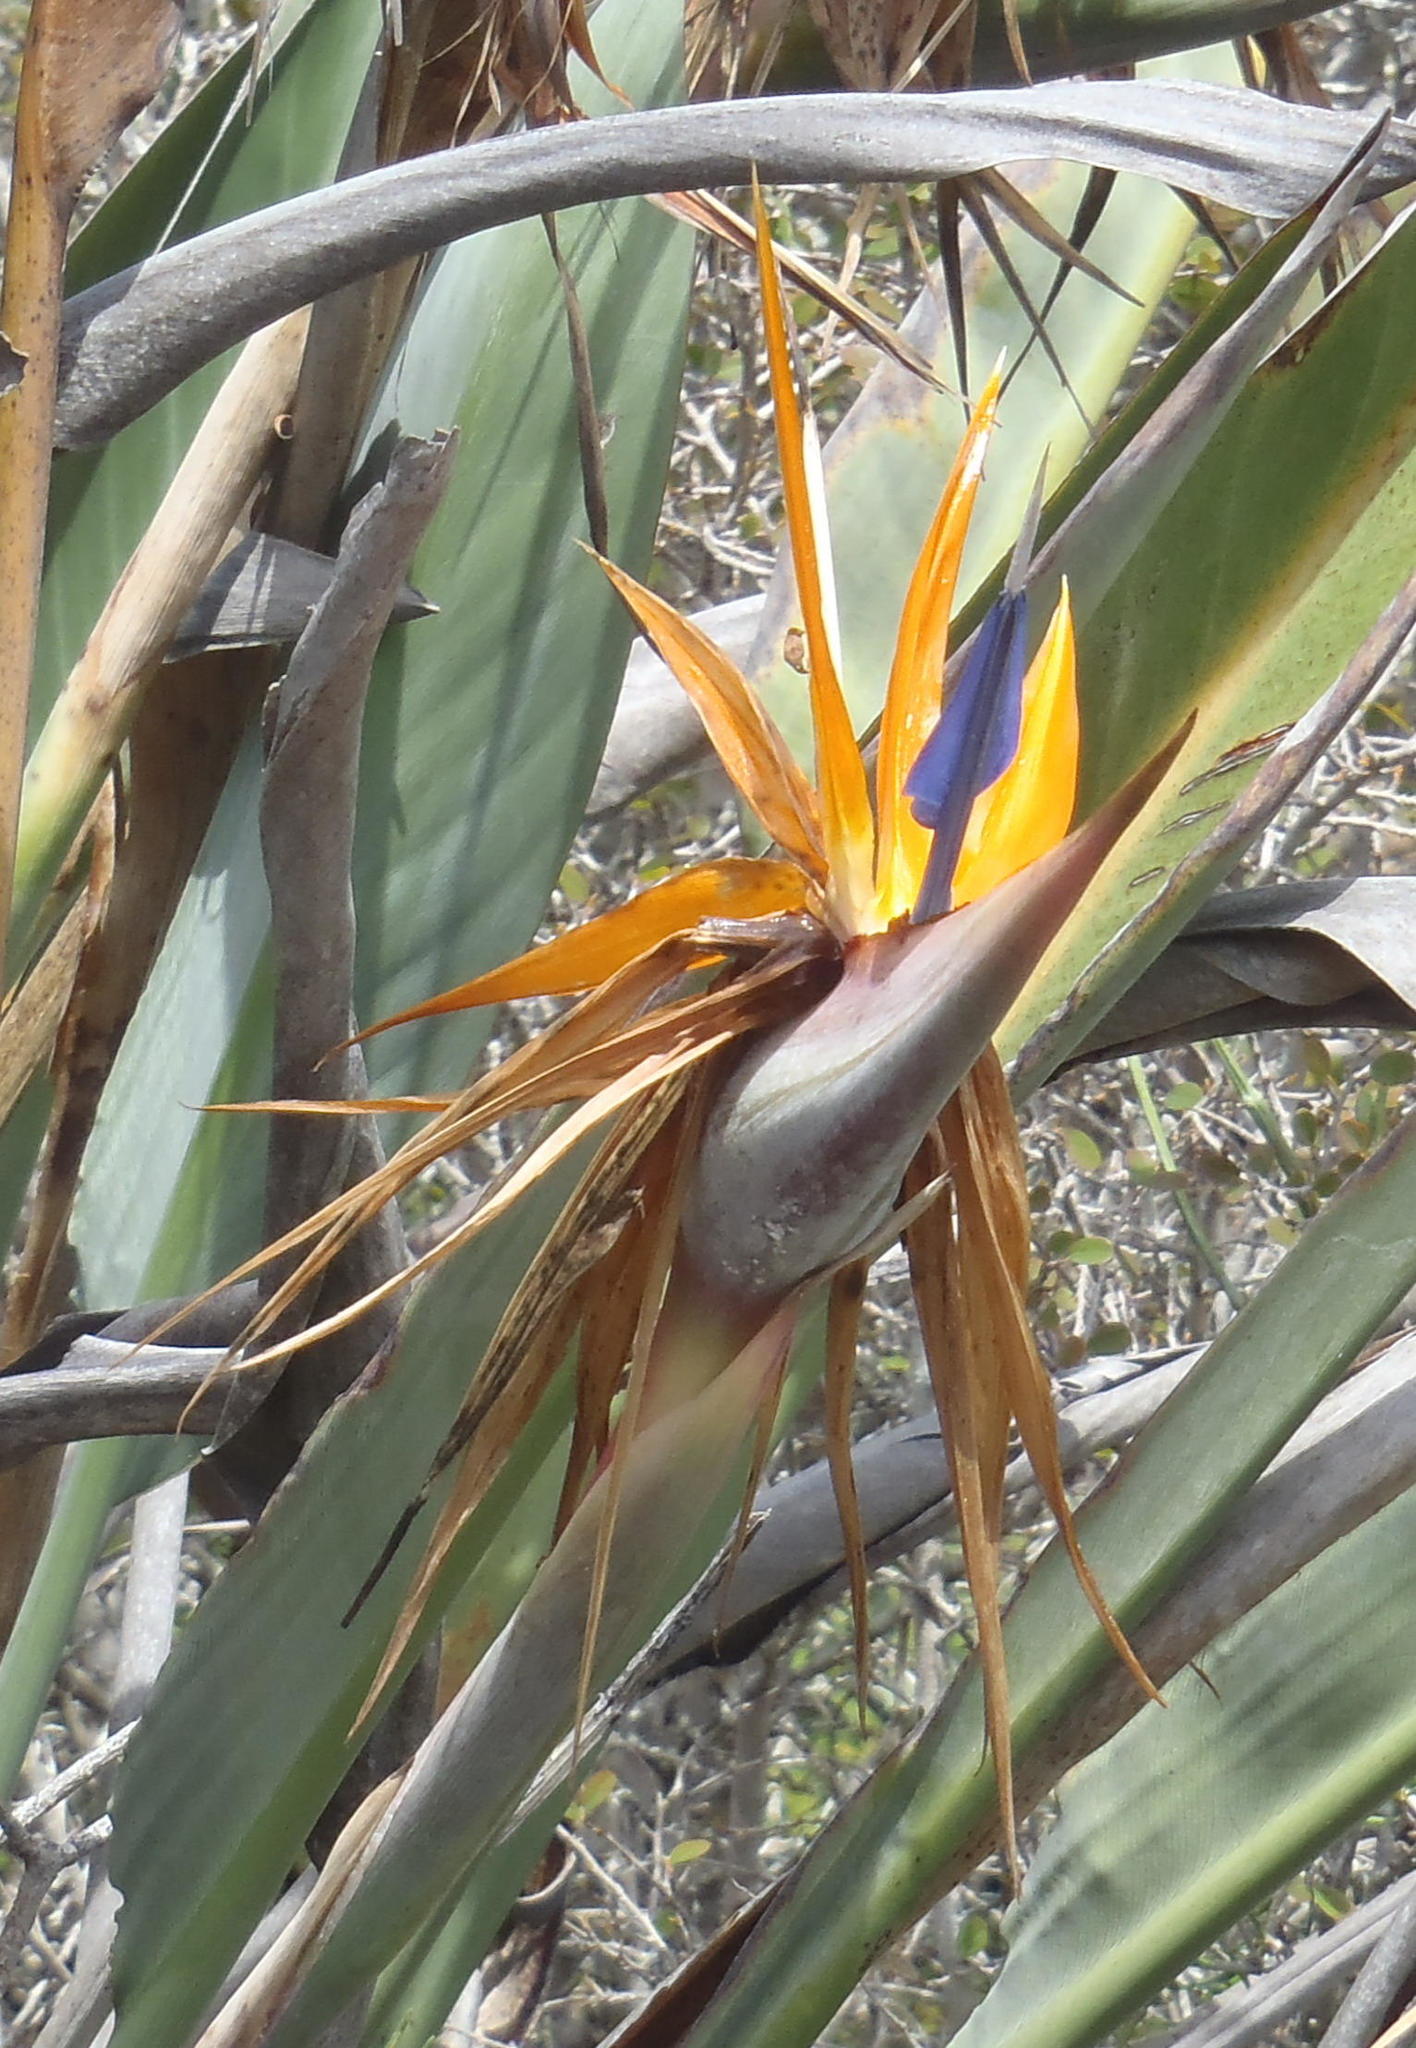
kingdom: Plantae
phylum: Tracheophyta
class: Liliopsida
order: Zingiberales
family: Strelitziaceae
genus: Strelitzia
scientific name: Strelitzia reginae
